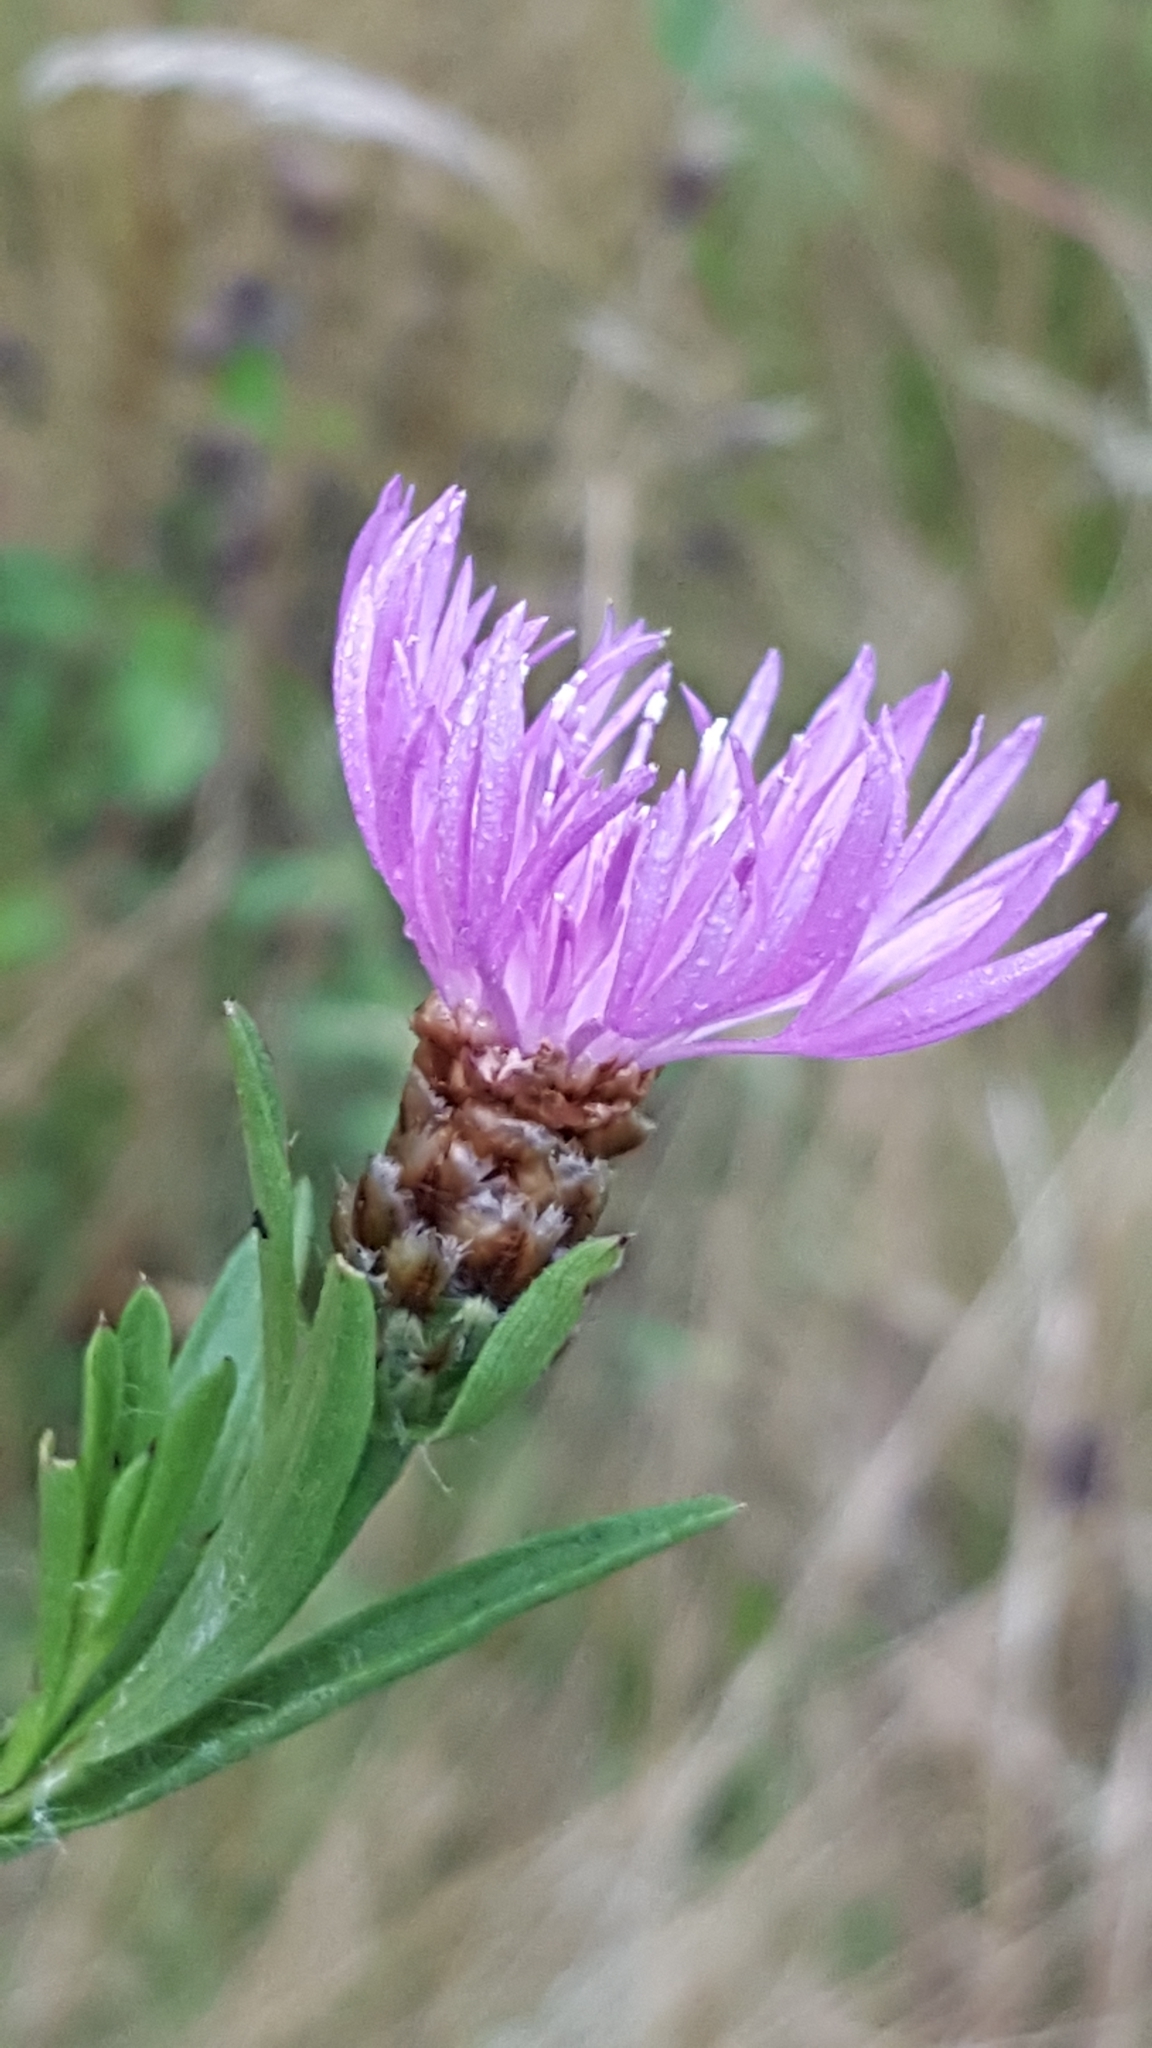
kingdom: Plantae
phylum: Tracheophyta
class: Magnoliopsida
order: Asterales
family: Asteraceae
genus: Centaurea
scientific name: Centaurea jacea
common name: Brown knapweed
